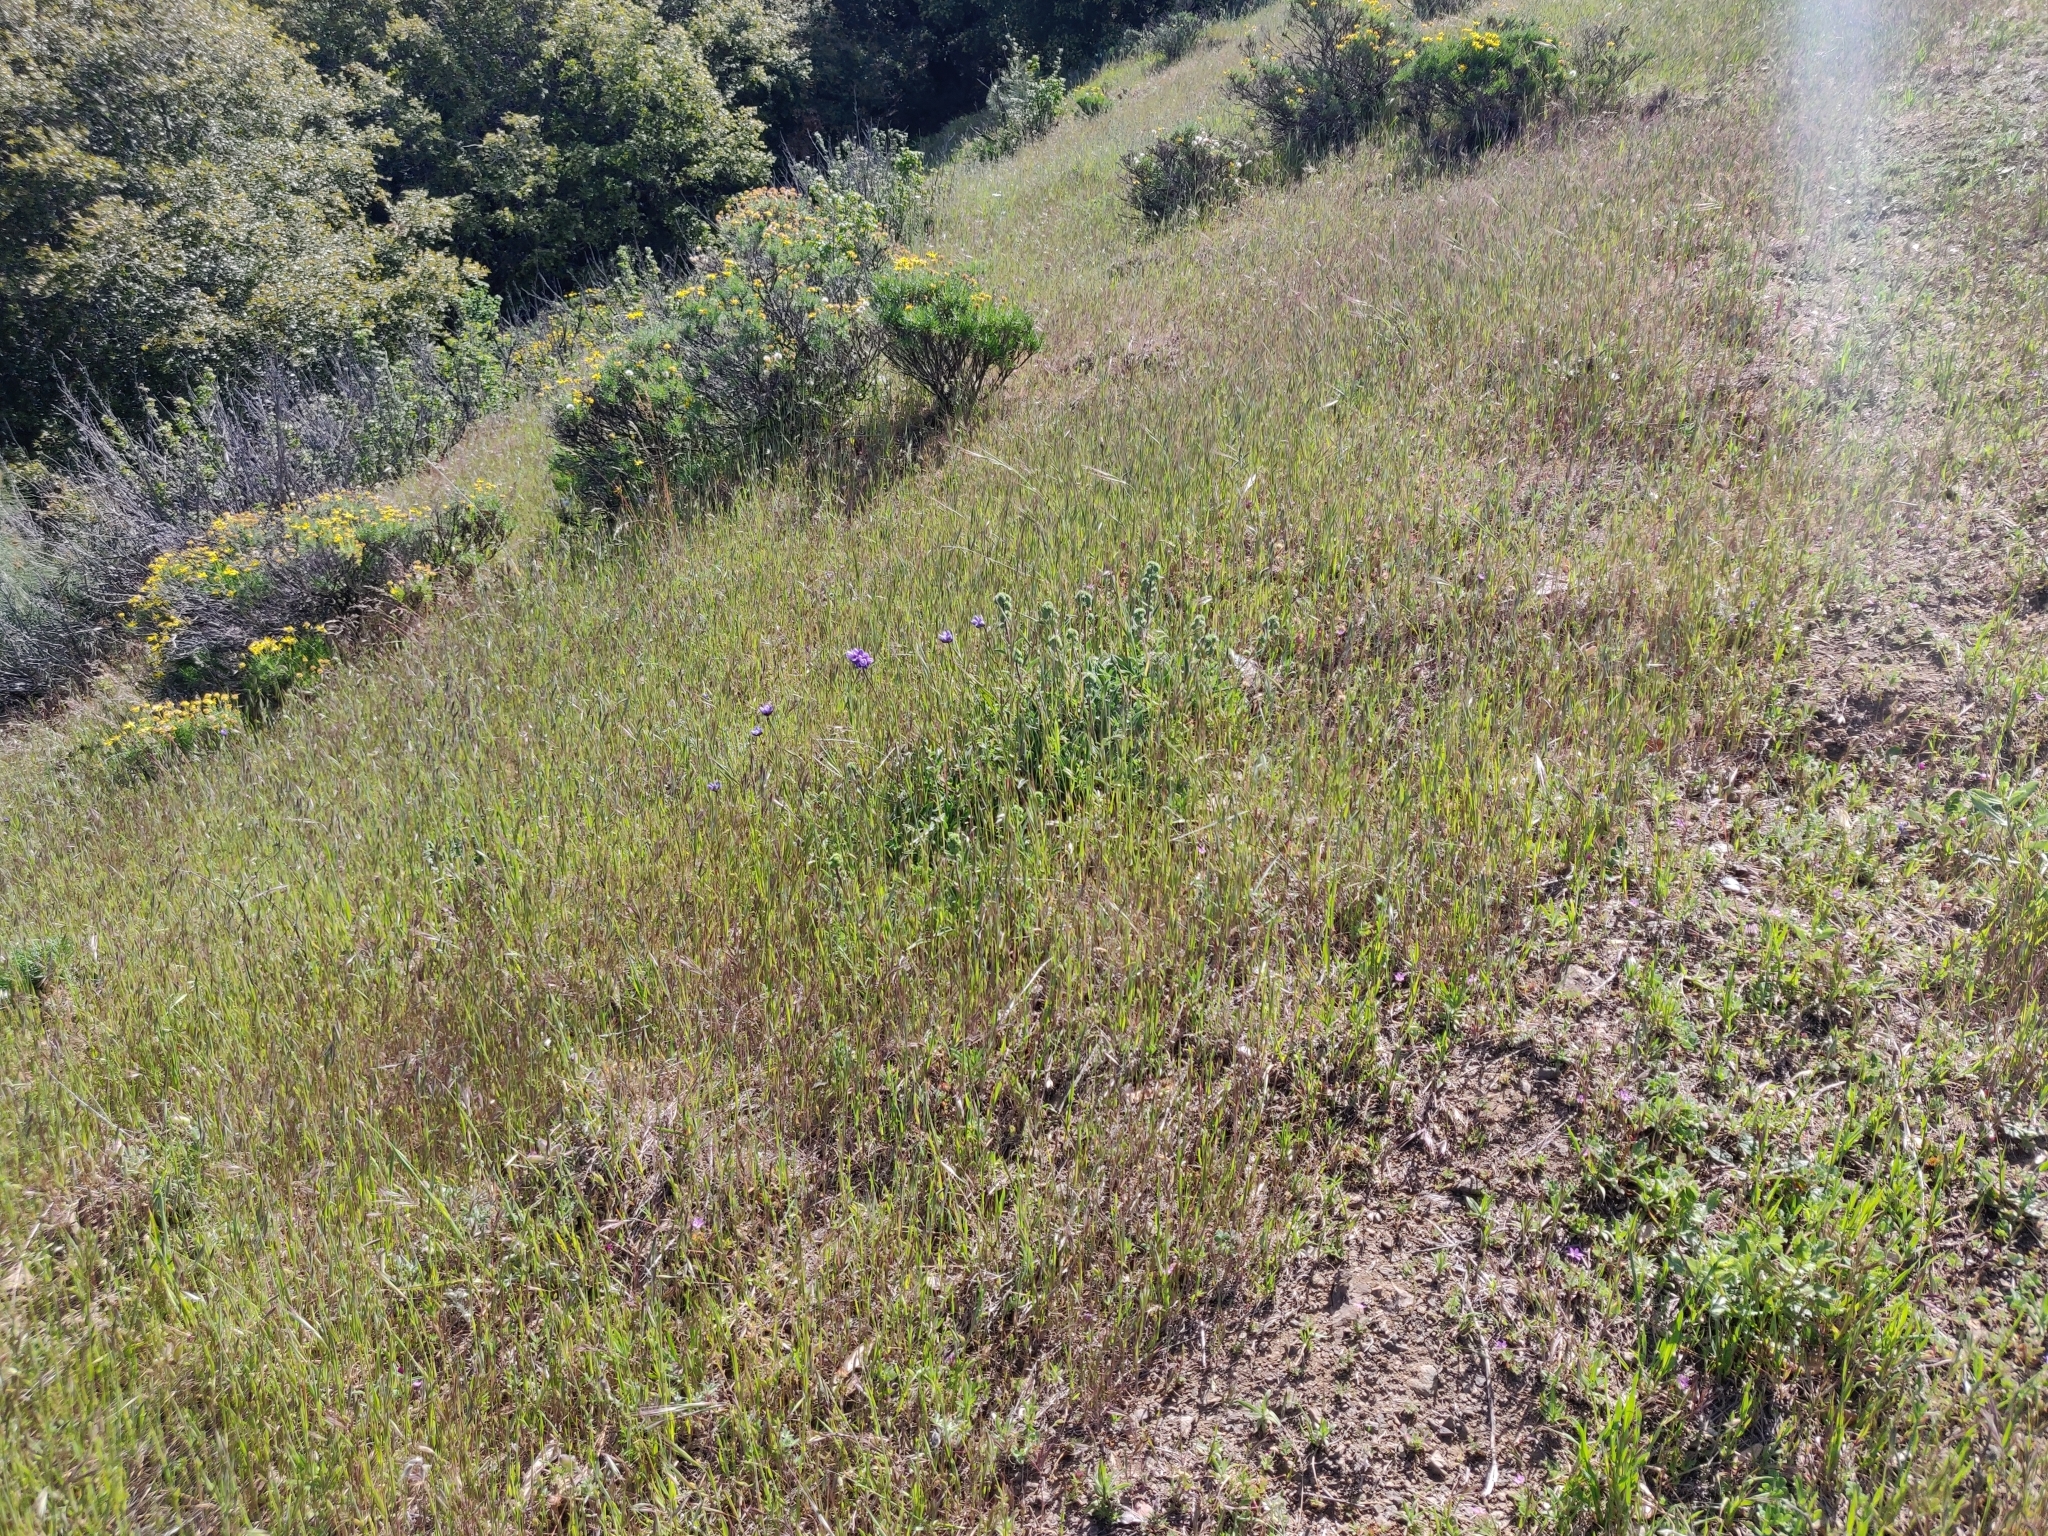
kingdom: Plantae
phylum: Tracheophyta
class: Liliopsida
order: Asparagales
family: Asparagaceae
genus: Dipterostemon
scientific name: Dipterostemon capitatus
